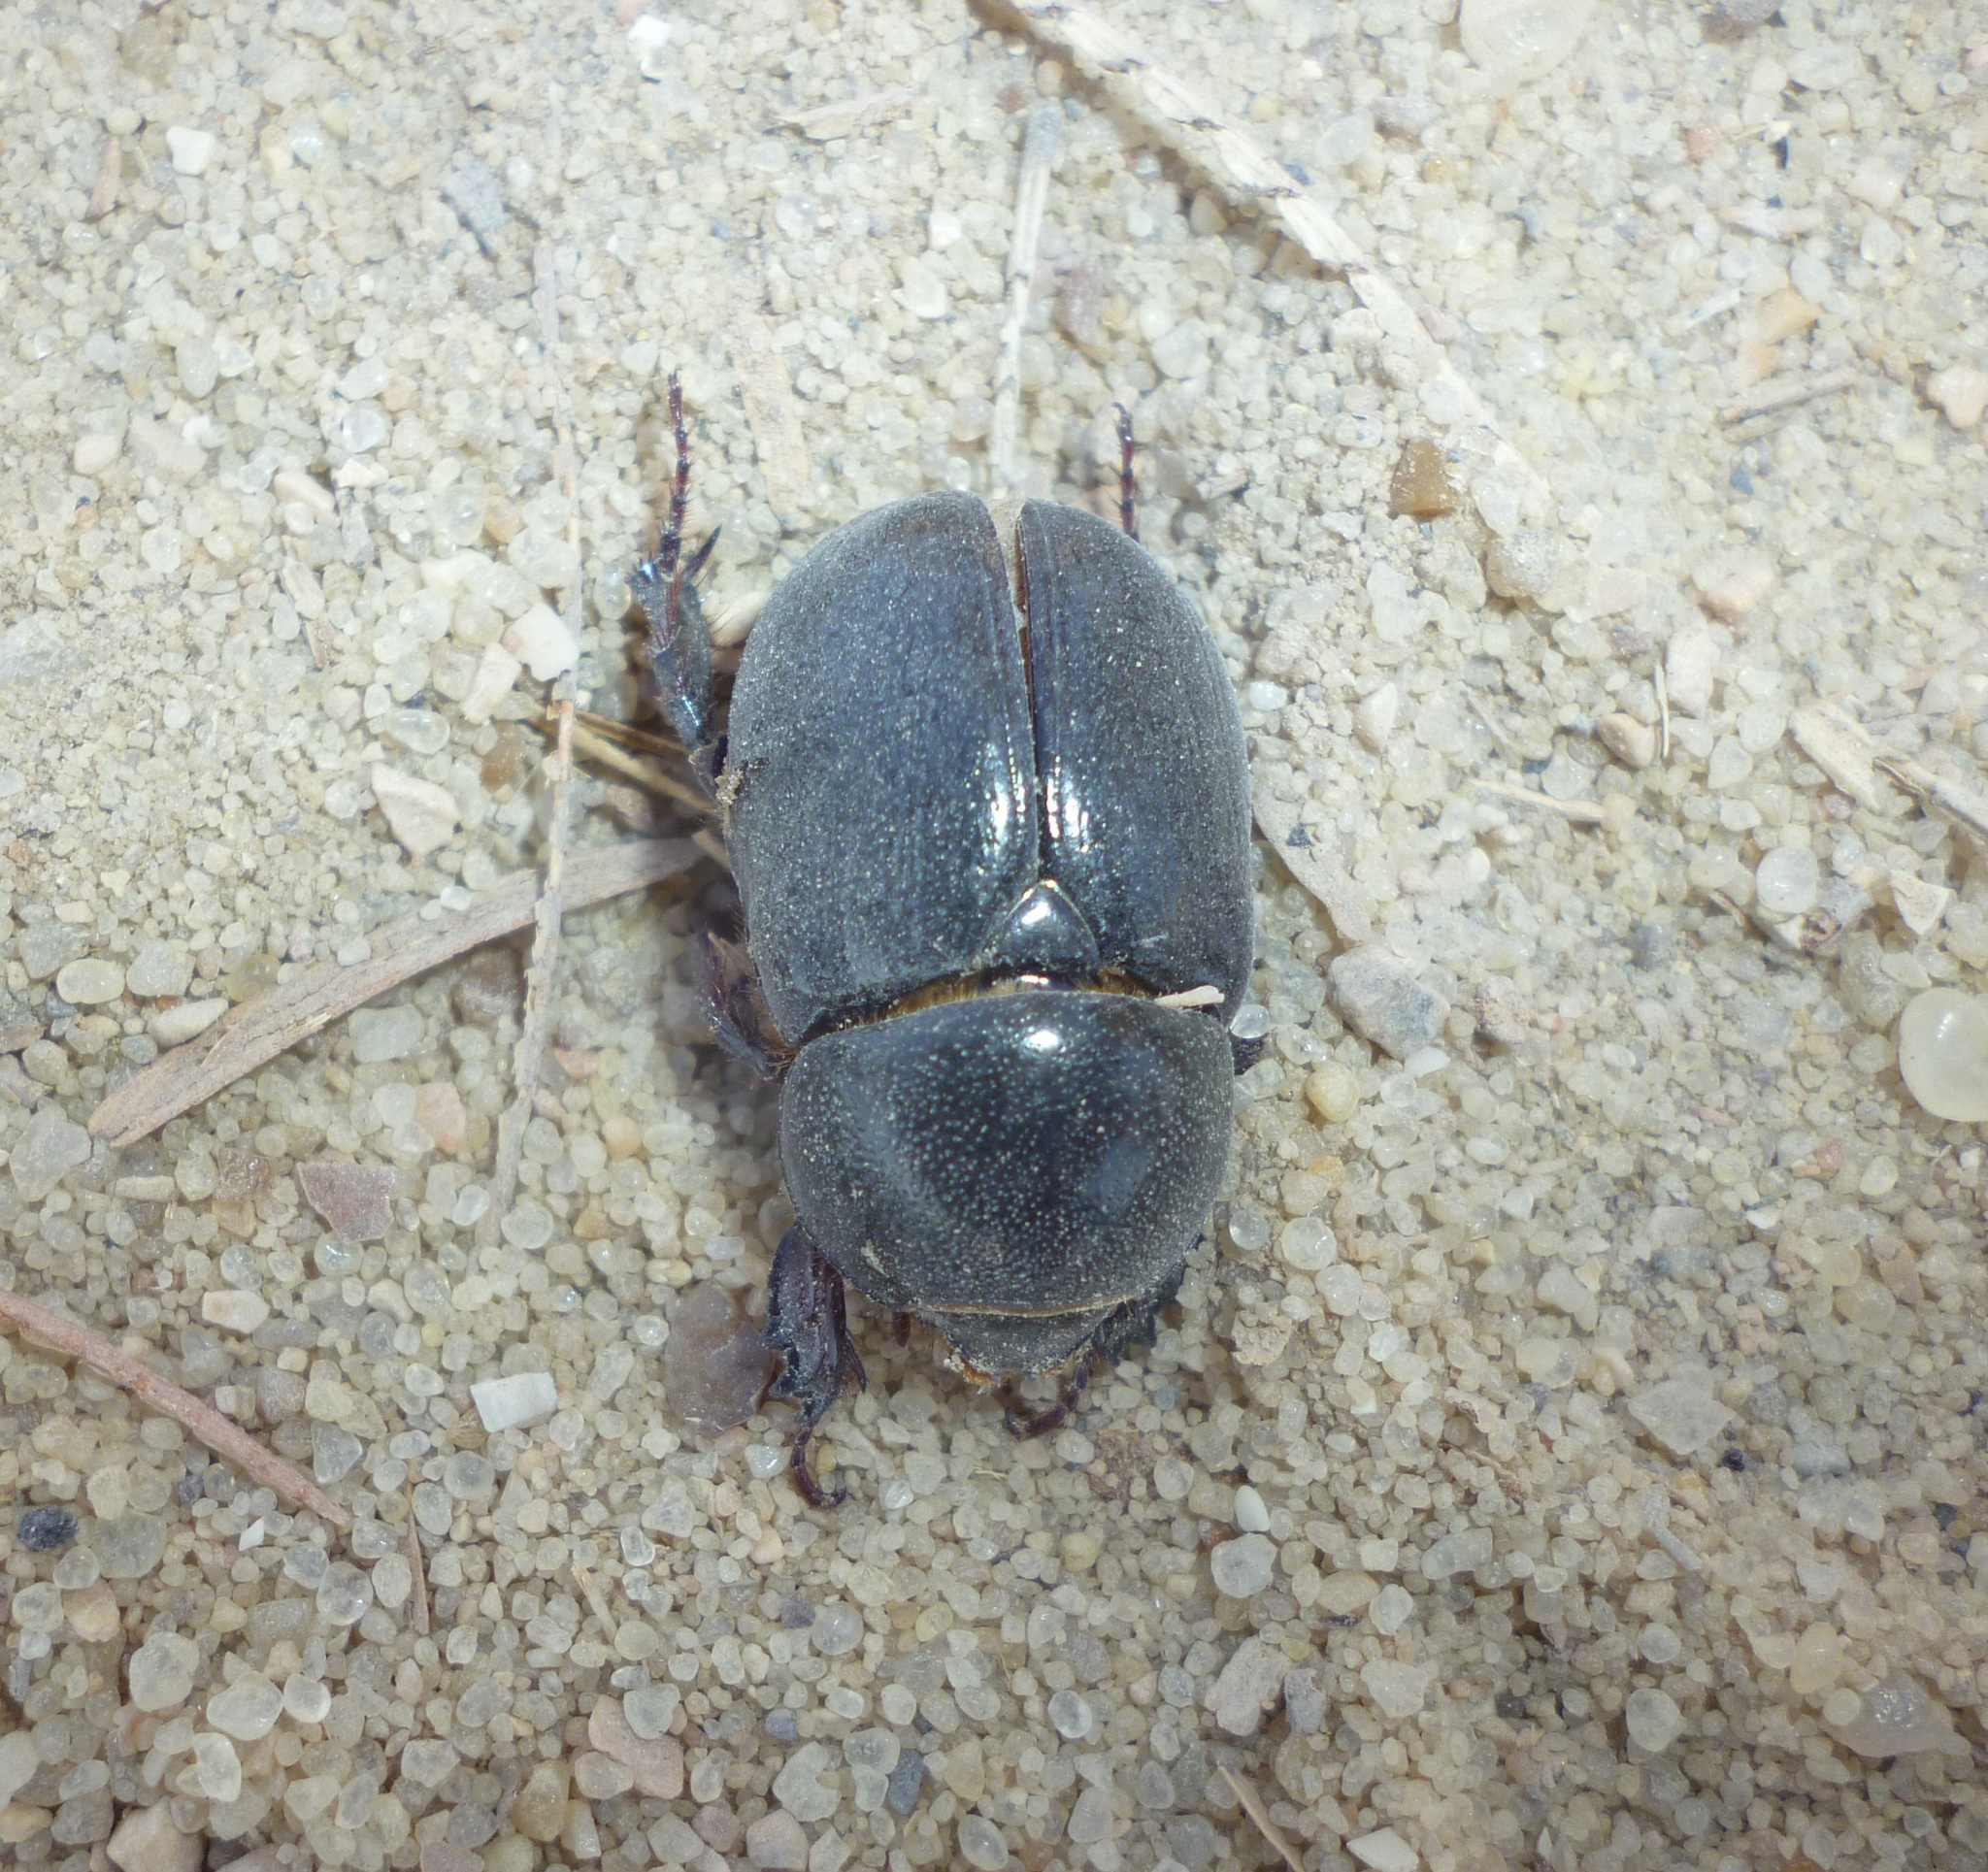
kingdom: Animalia
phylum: Arthropoda
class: Insecta
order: Coleoptera
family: Scarabaeidae
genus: Pentodon
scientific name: Pentodon algerinus
